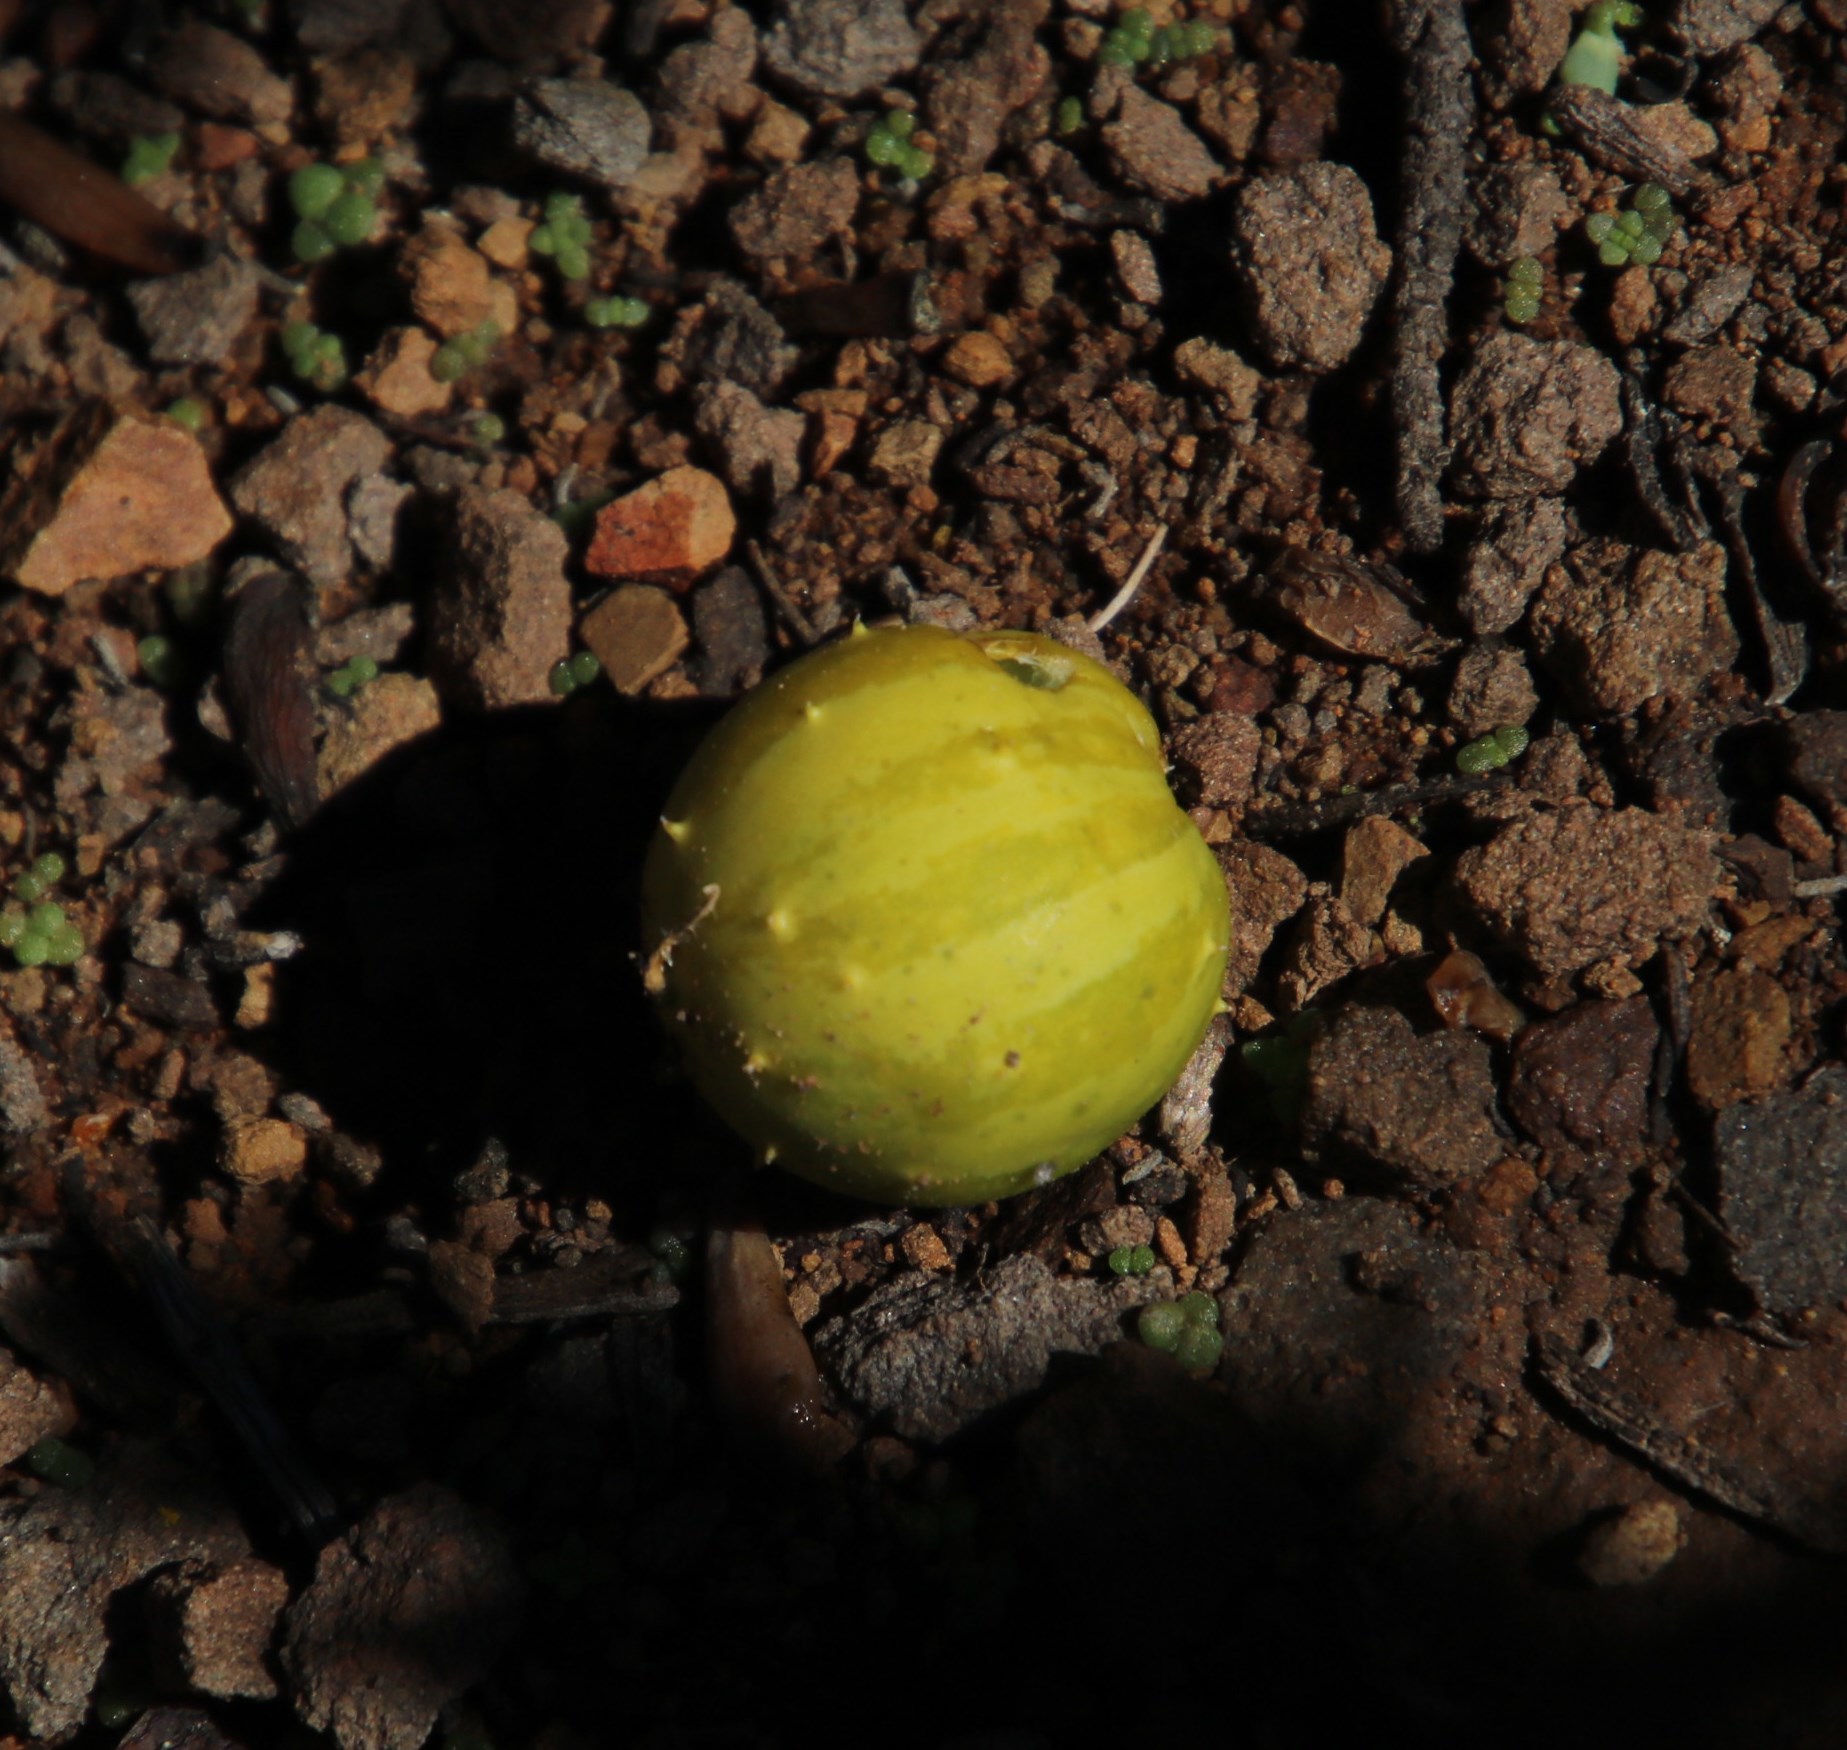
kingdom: Plantae
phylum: Tracheophyta
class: Magnoliopsida
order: Cucurbitales
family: Cucurbitaceae
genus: Cucumis
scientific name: Cucumis myriocarpus
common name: Gooseberry cucumber
